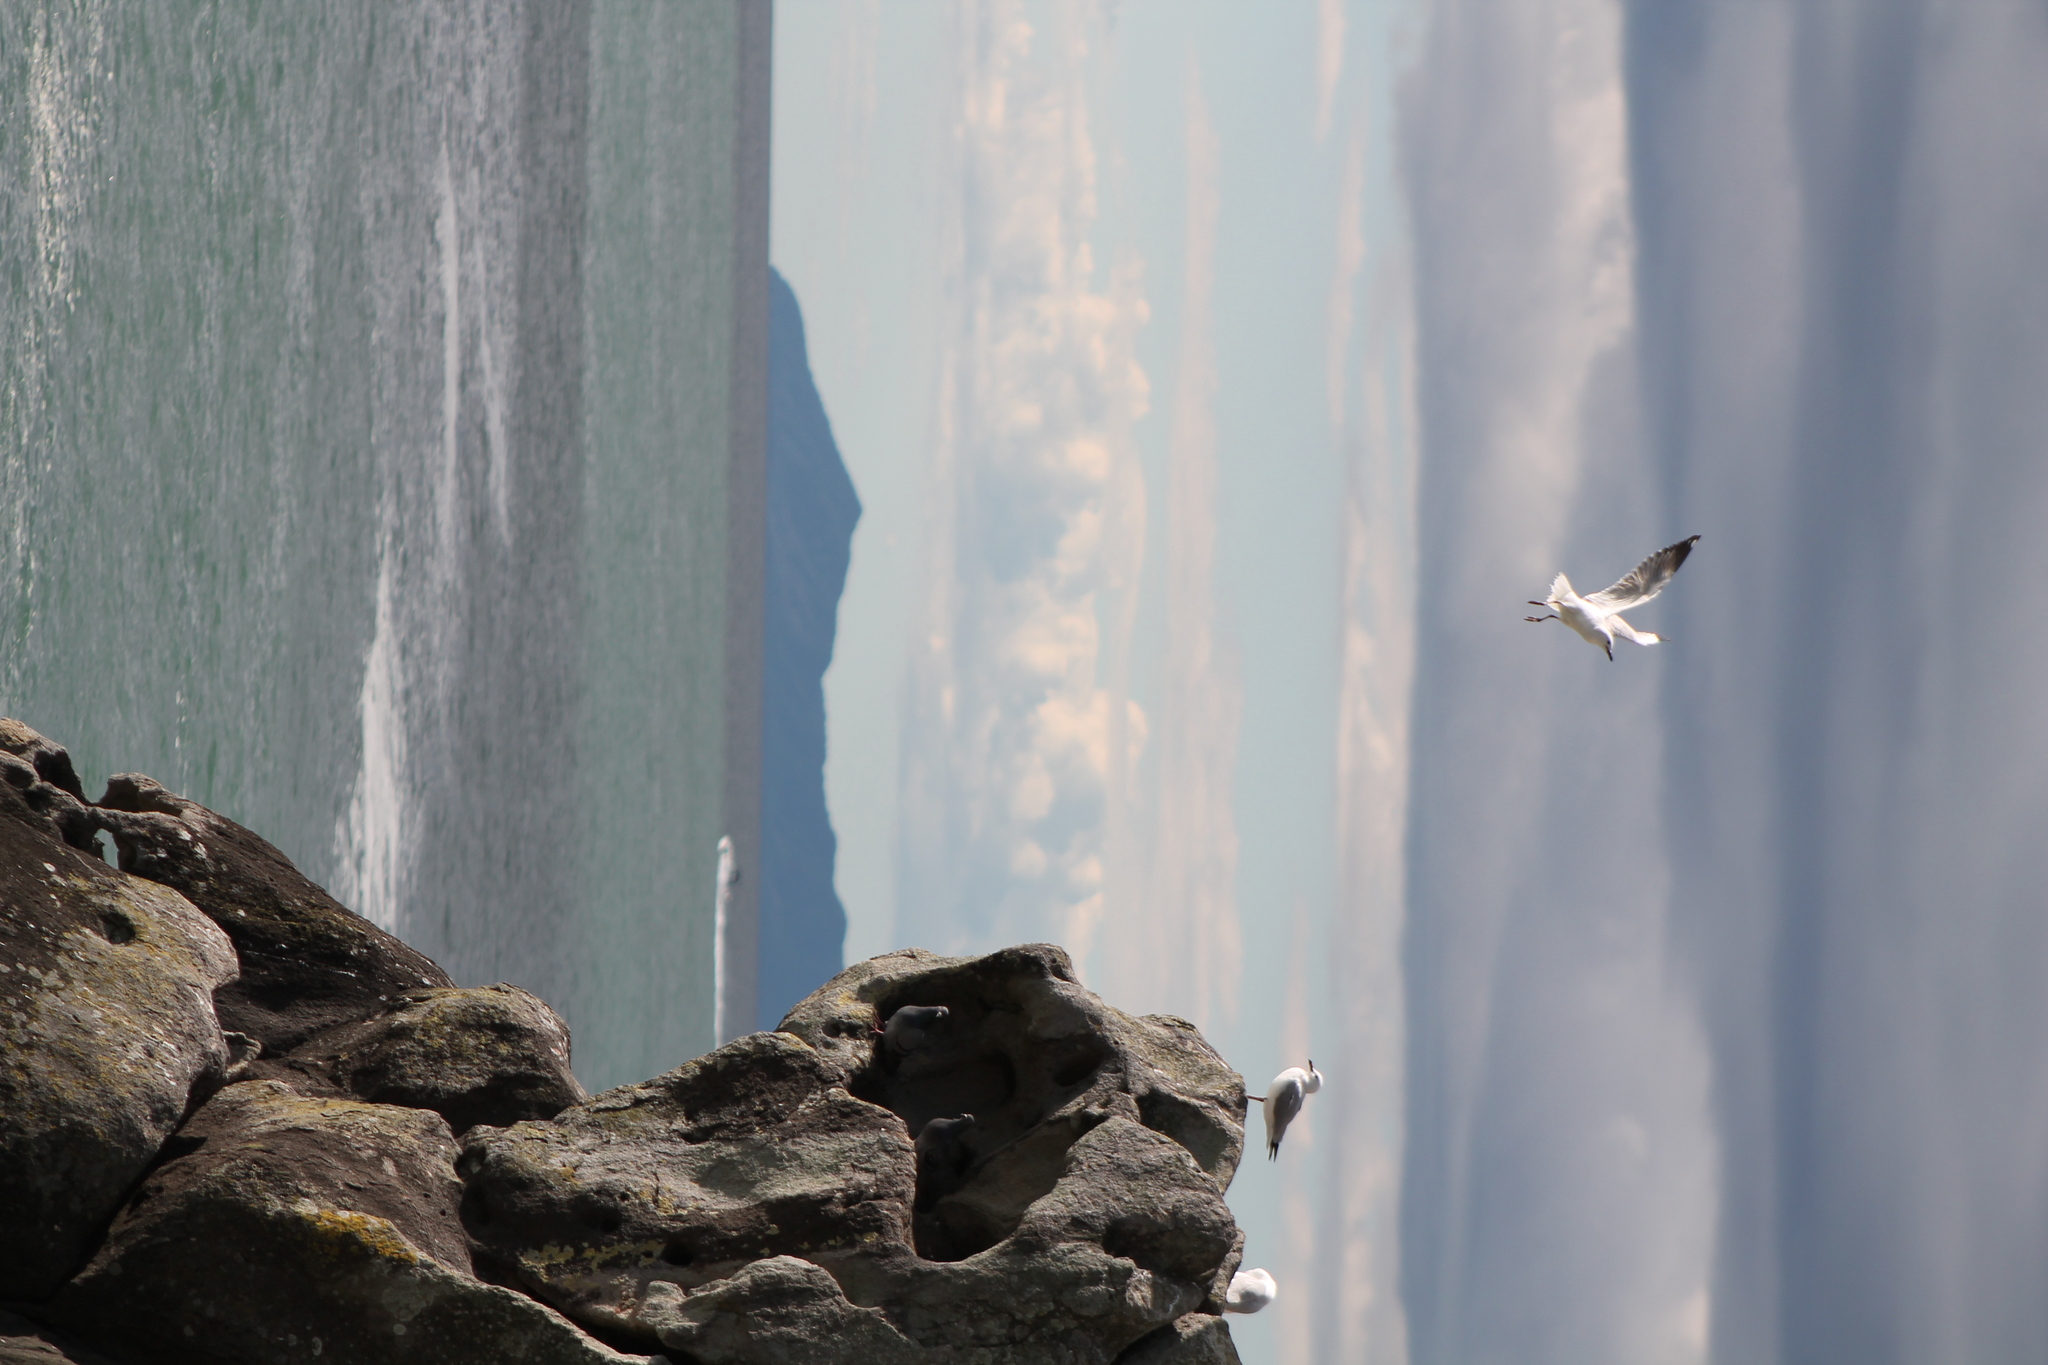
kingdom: Animalia
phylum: Chordata
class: Aves
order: Charadriiformes
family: Laridae
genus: Chroicocephalus
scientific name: Chroicocephalus novaehollandiae
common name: Silver gull
